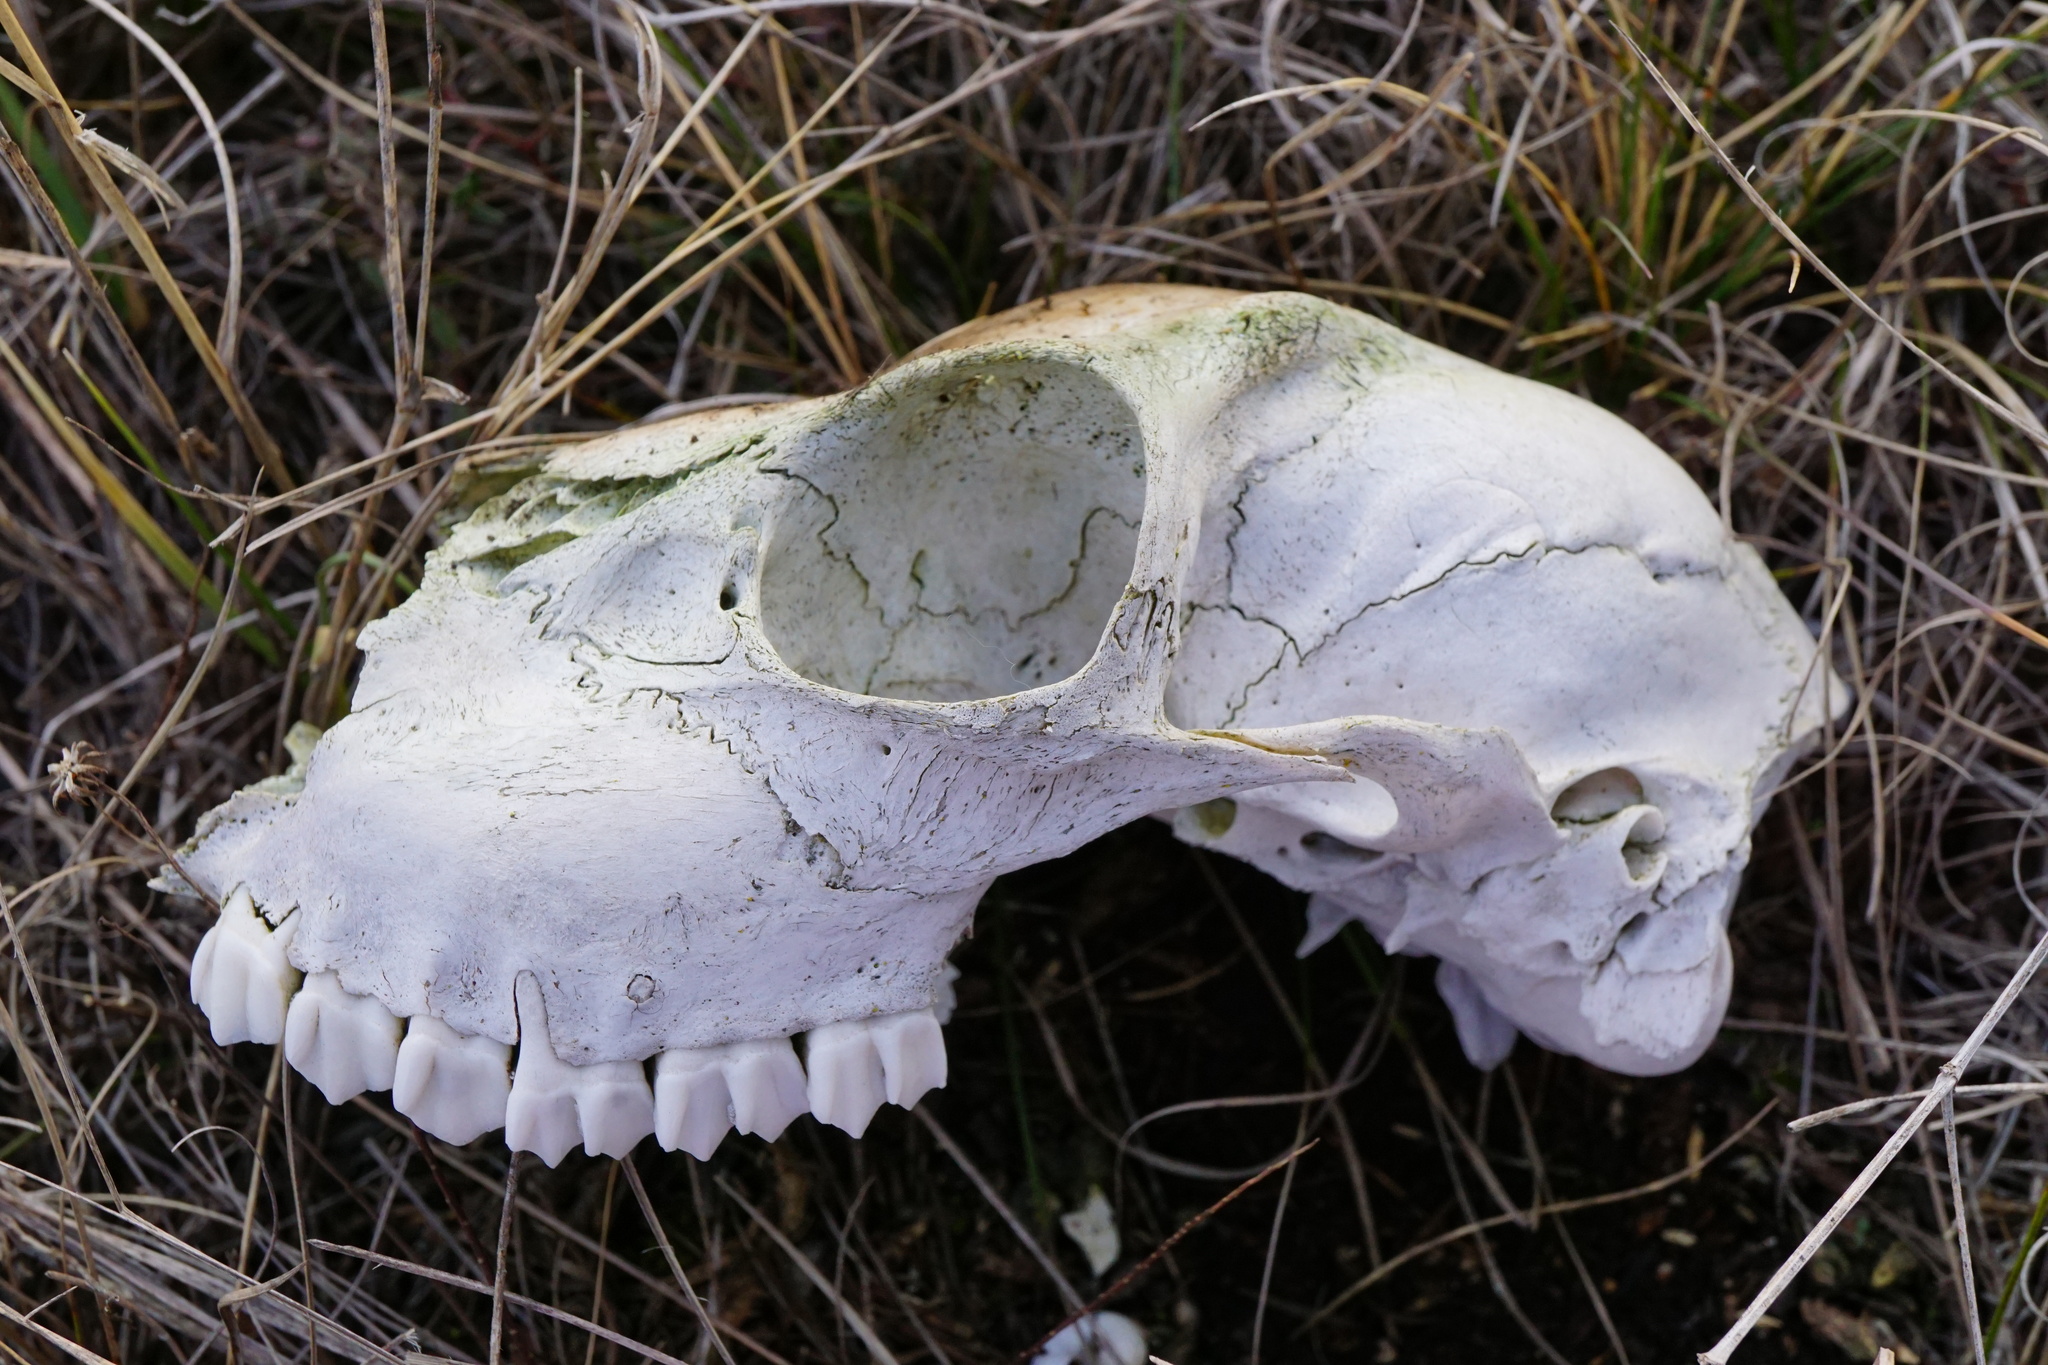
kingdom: Animalia
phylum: Chordata
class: Mammalia
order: Artiodactyla
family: Cervidae
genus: Capreolus
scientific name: Capreolus capreolus
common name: Western roe deer
